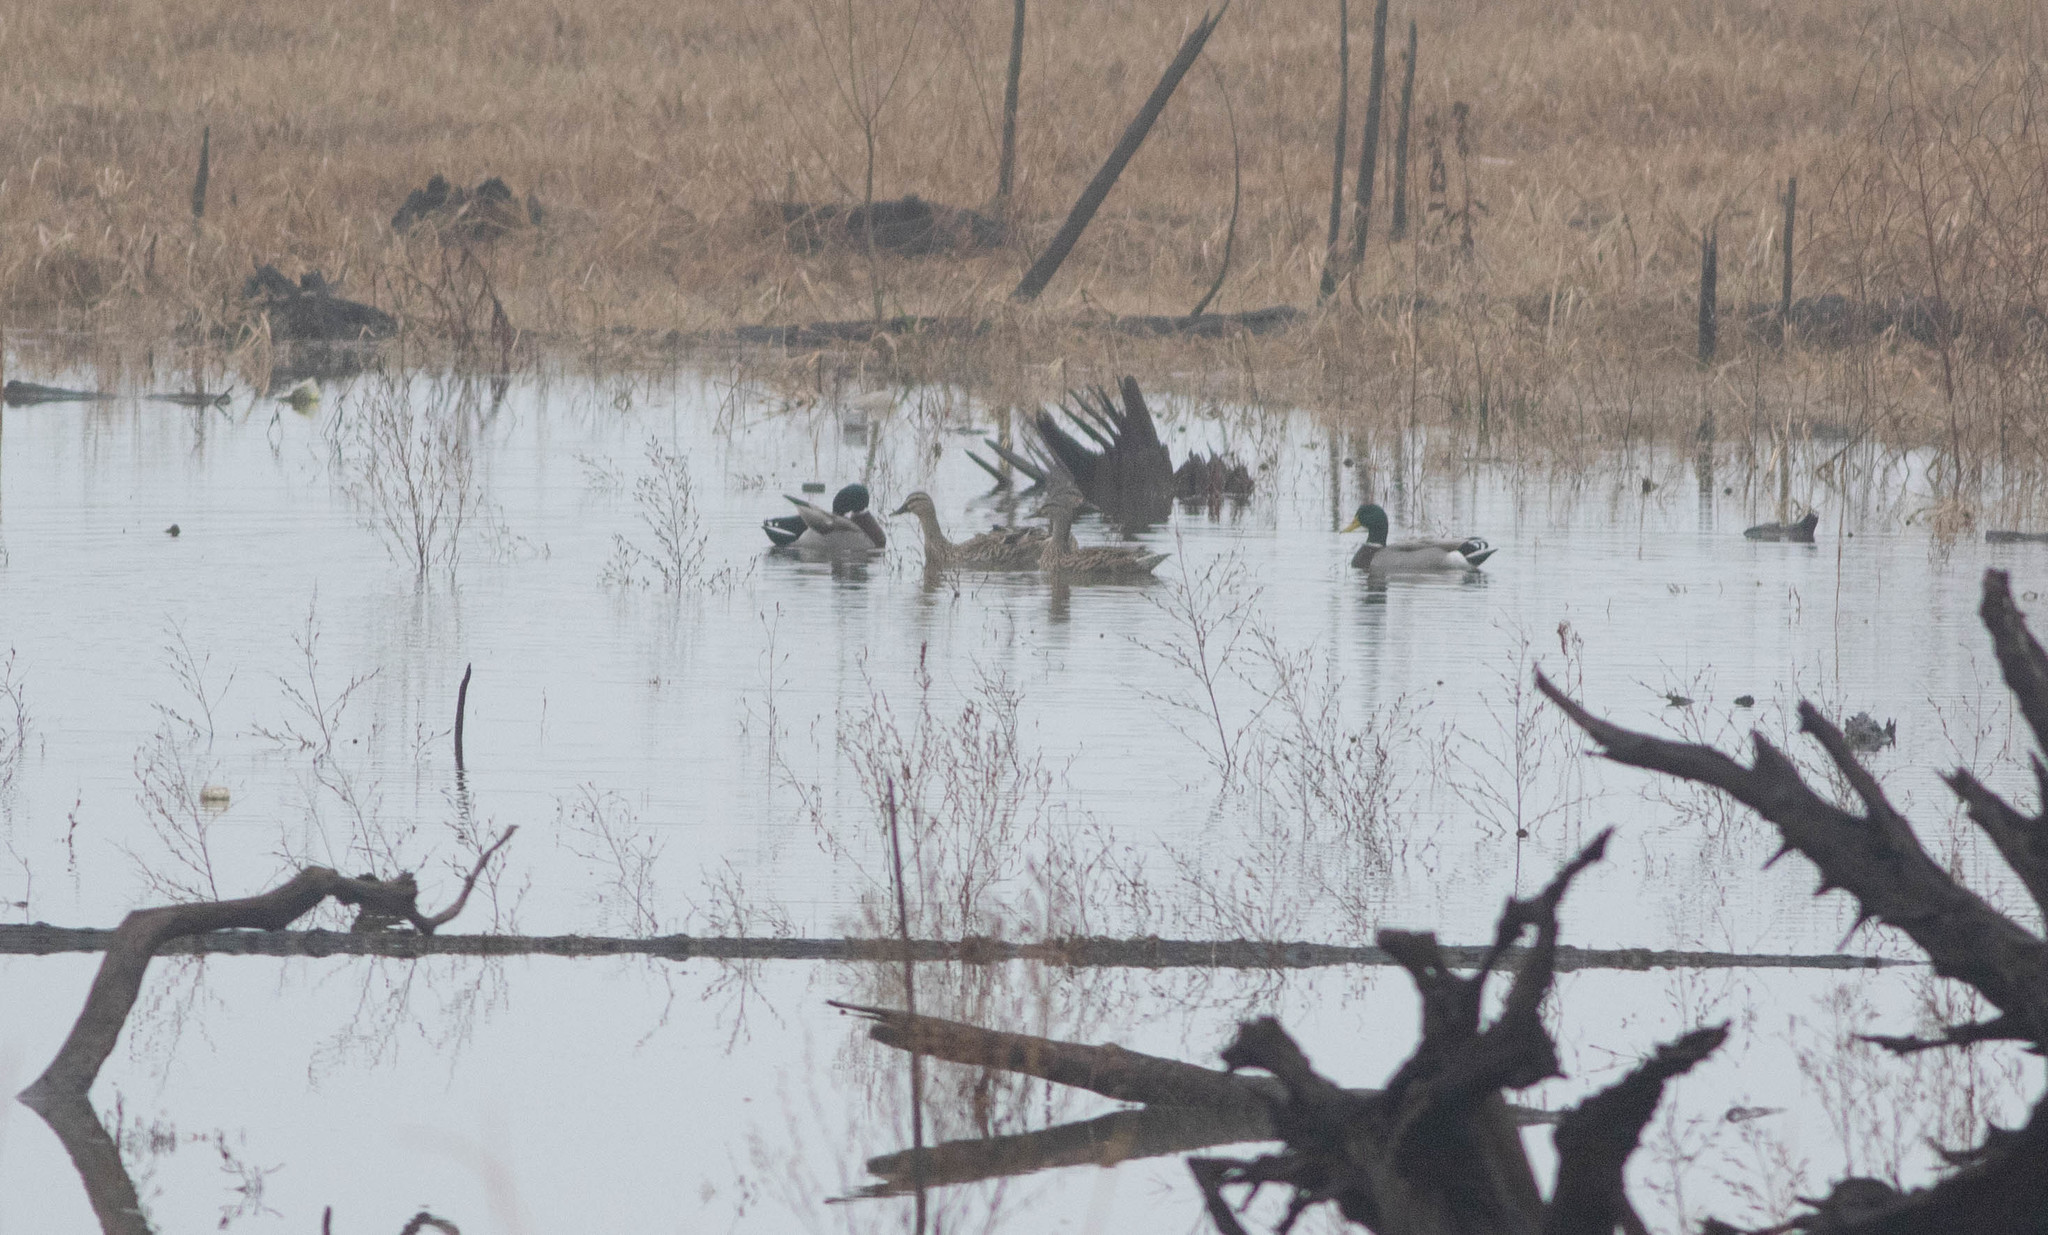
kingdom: Animalia
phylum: Chordata
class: Aves
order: Anseriformes
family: Anatidae
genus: Anas
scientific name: Anas platyrhynchos
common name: Mallard
